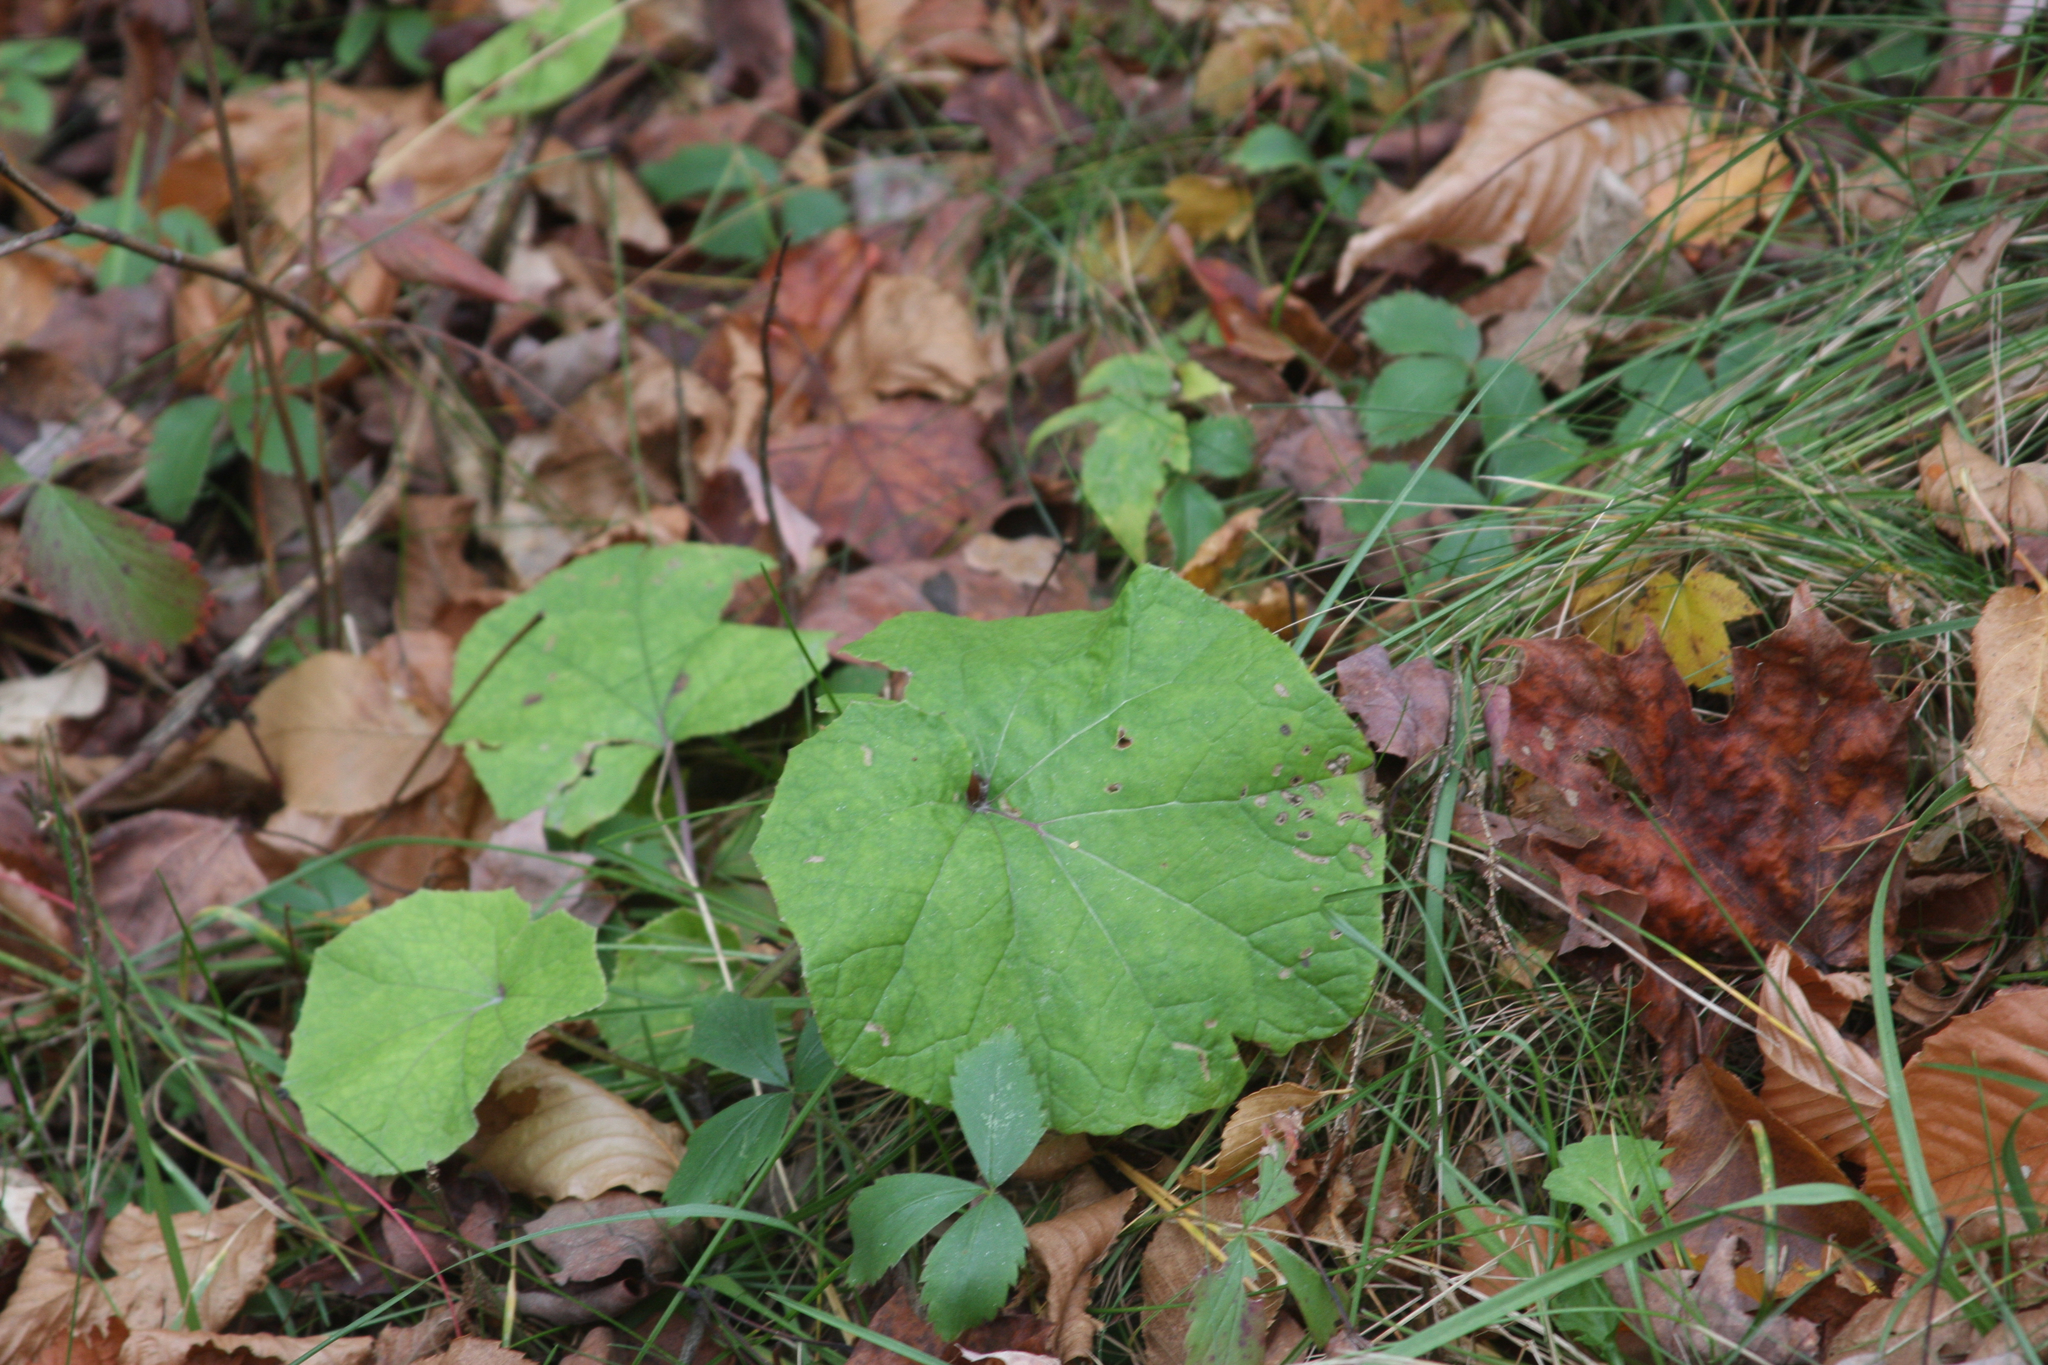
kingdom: Plantae
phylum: Tracheophyta
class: Magnoliopsida
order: Asterales
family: Asteraceae
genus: Tussilago
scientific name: Tussilago farfara
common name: Coltsfoot
